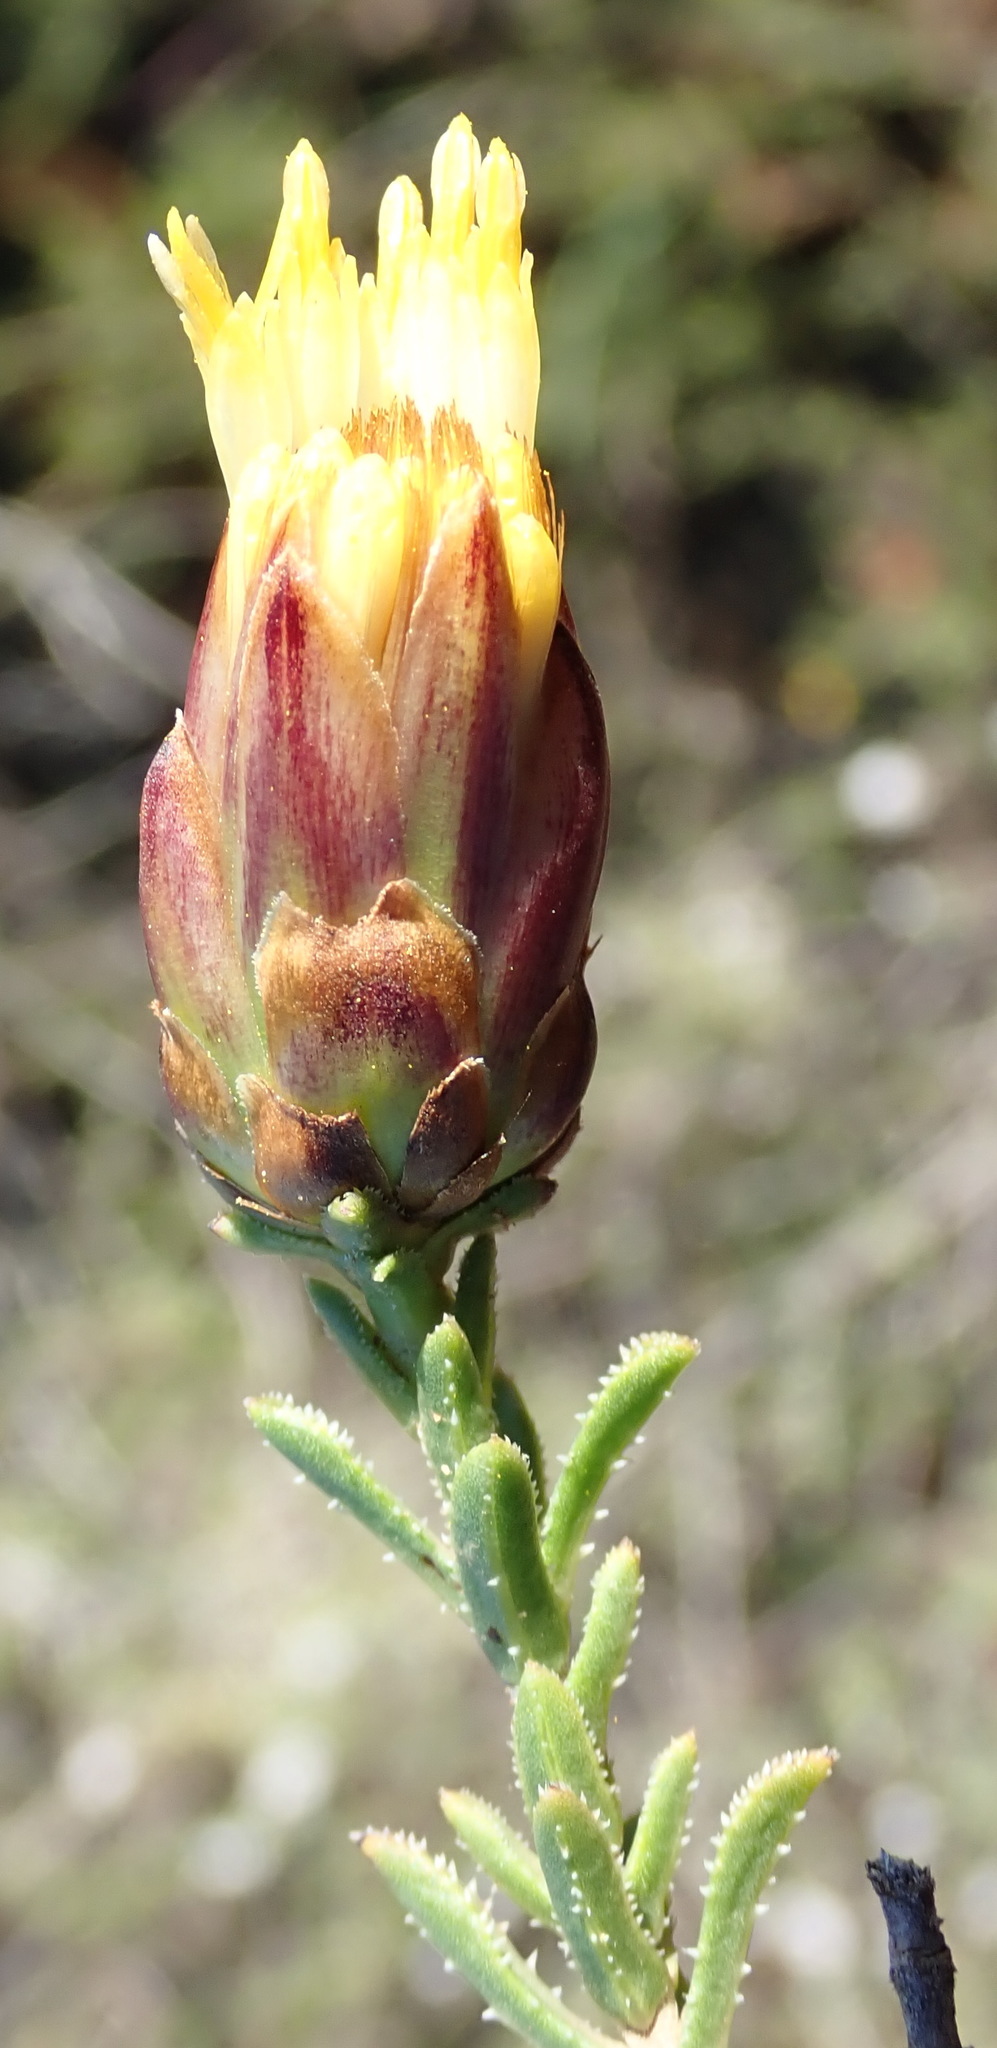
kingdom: Plantae
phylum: Tracheophyta
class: Magnoliopsida
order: Asterales
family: Asteraceae
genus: Pteronia
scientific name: Pteronia staehelinoides
